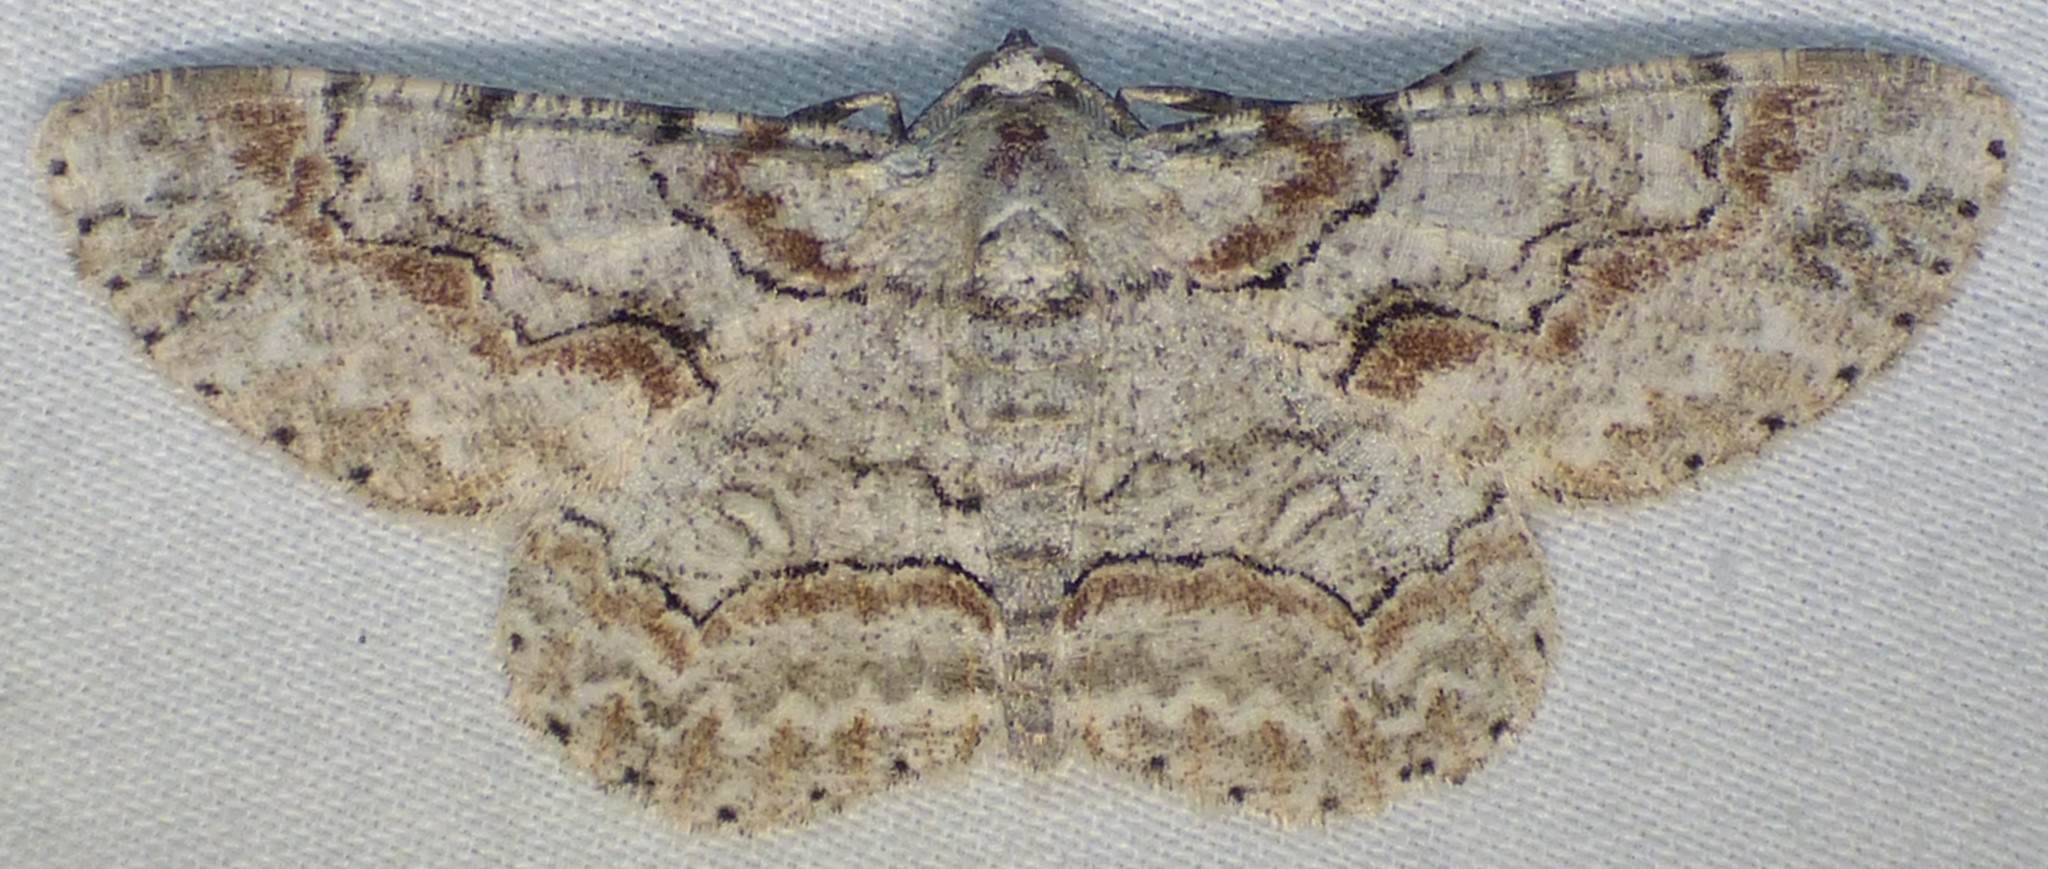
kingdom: Animalia
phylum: Arthropoda
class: Insecta
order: Lepidoptera
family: Geometridae
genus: Iridopsis
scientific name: Iridopsis defectaria
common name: Brown-shaded gray
